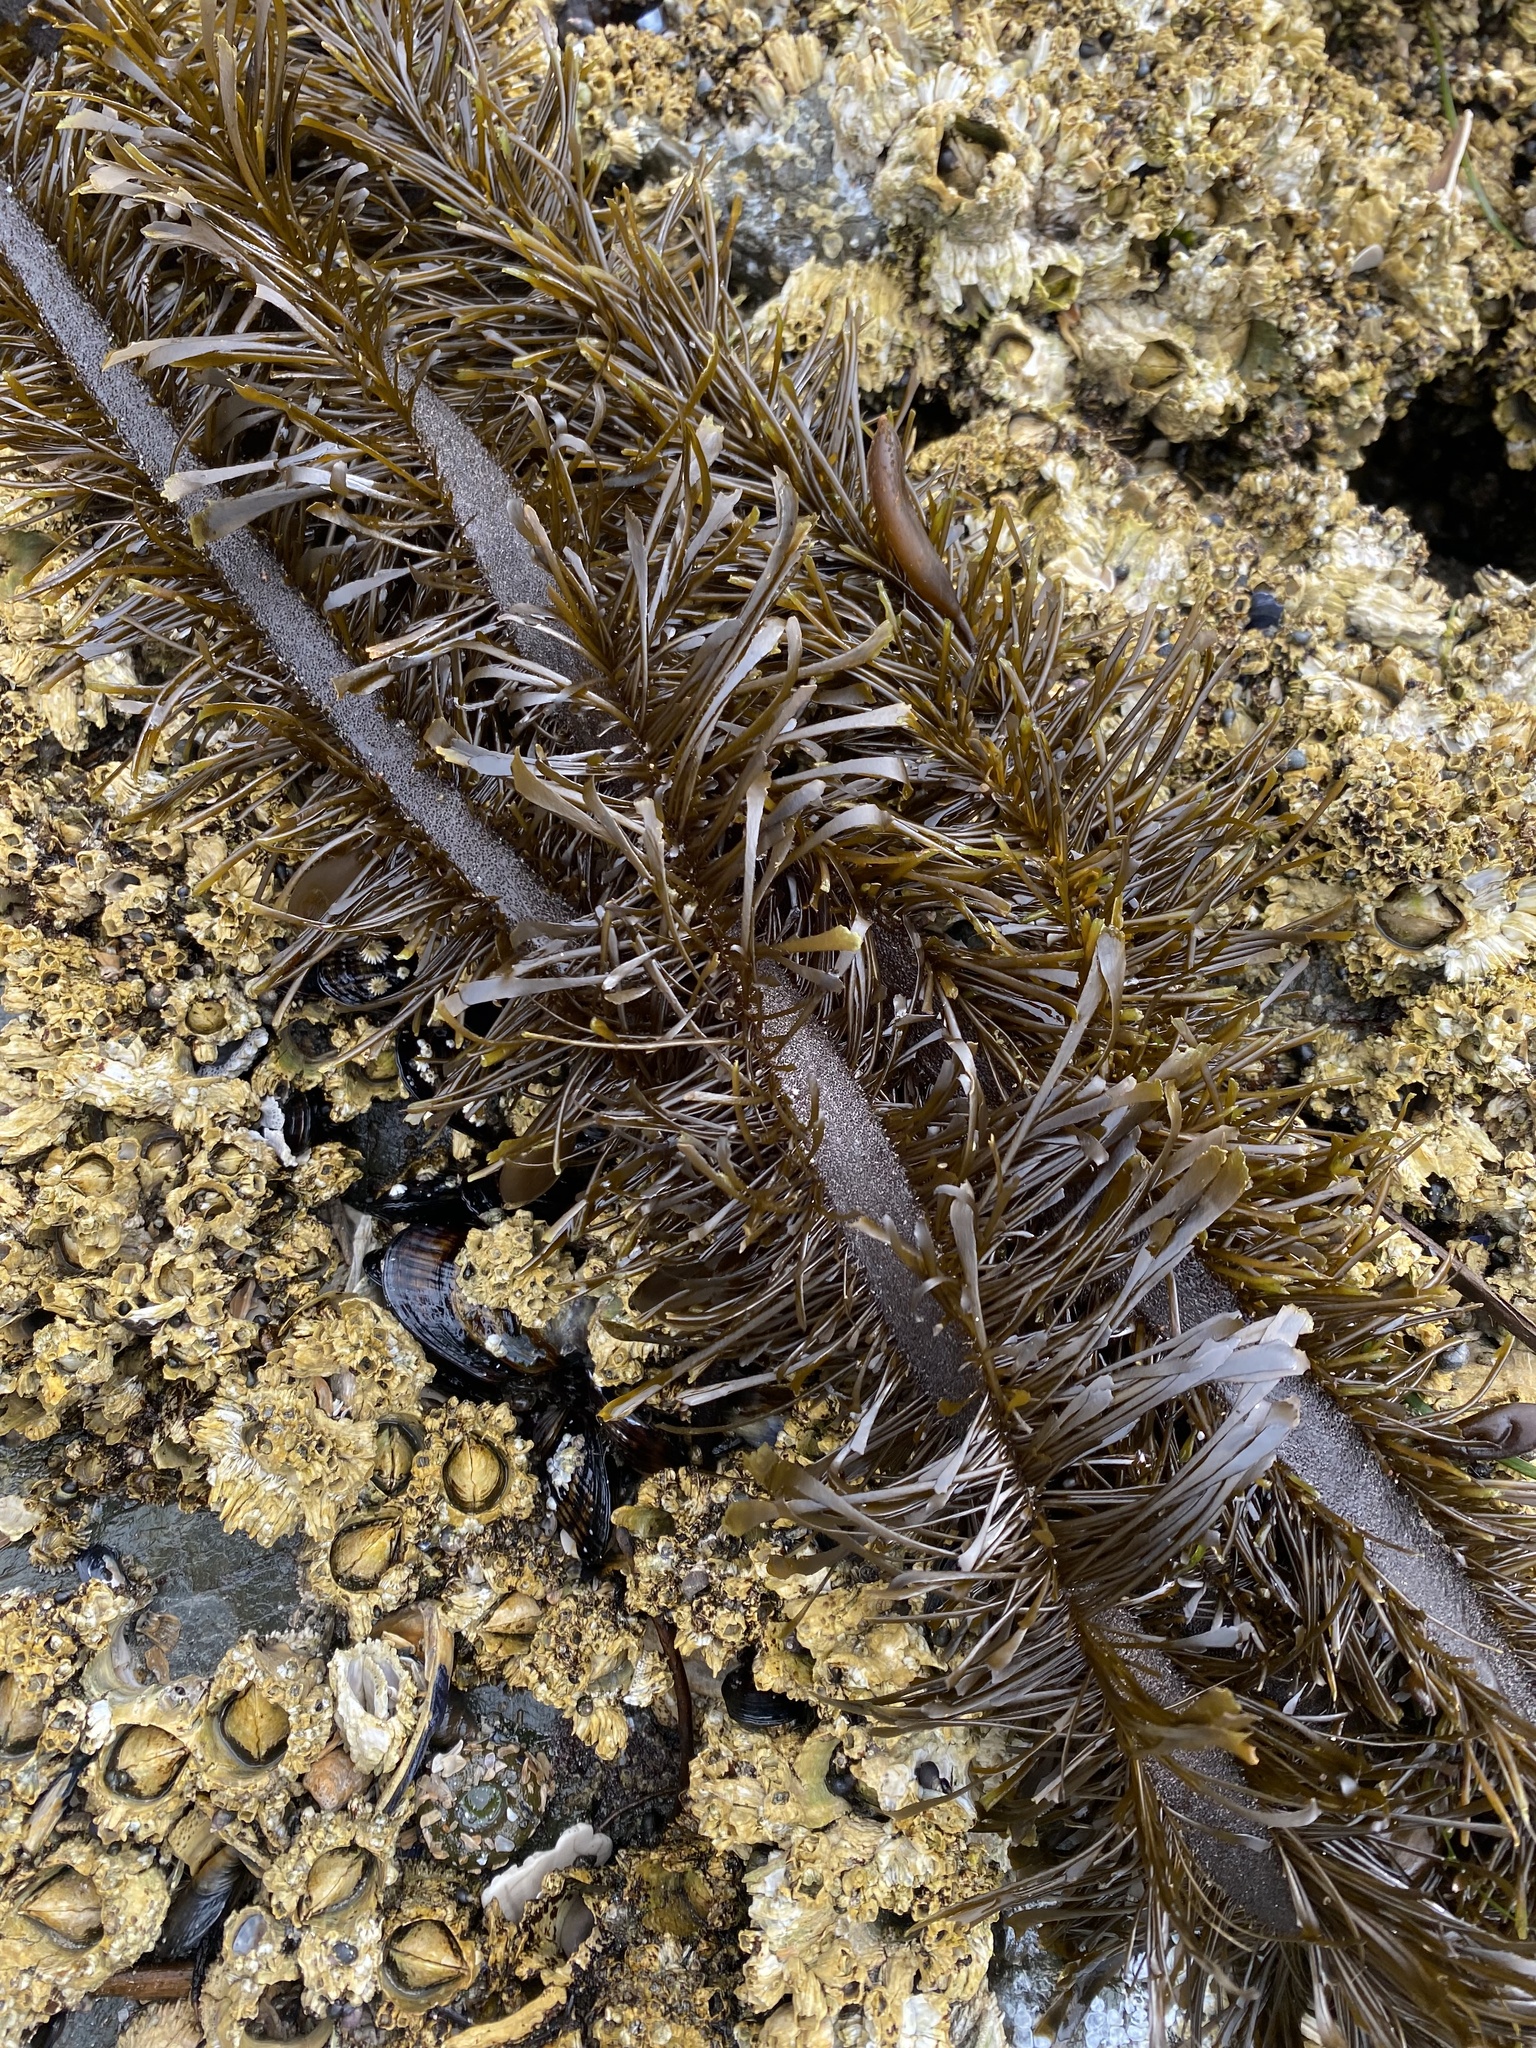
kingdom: Chromista
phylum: Ochrophyta
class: Phaeophyceae
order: Laminariales
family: Lessoniaceae
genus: Egregia
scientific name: Egregia menziesii
